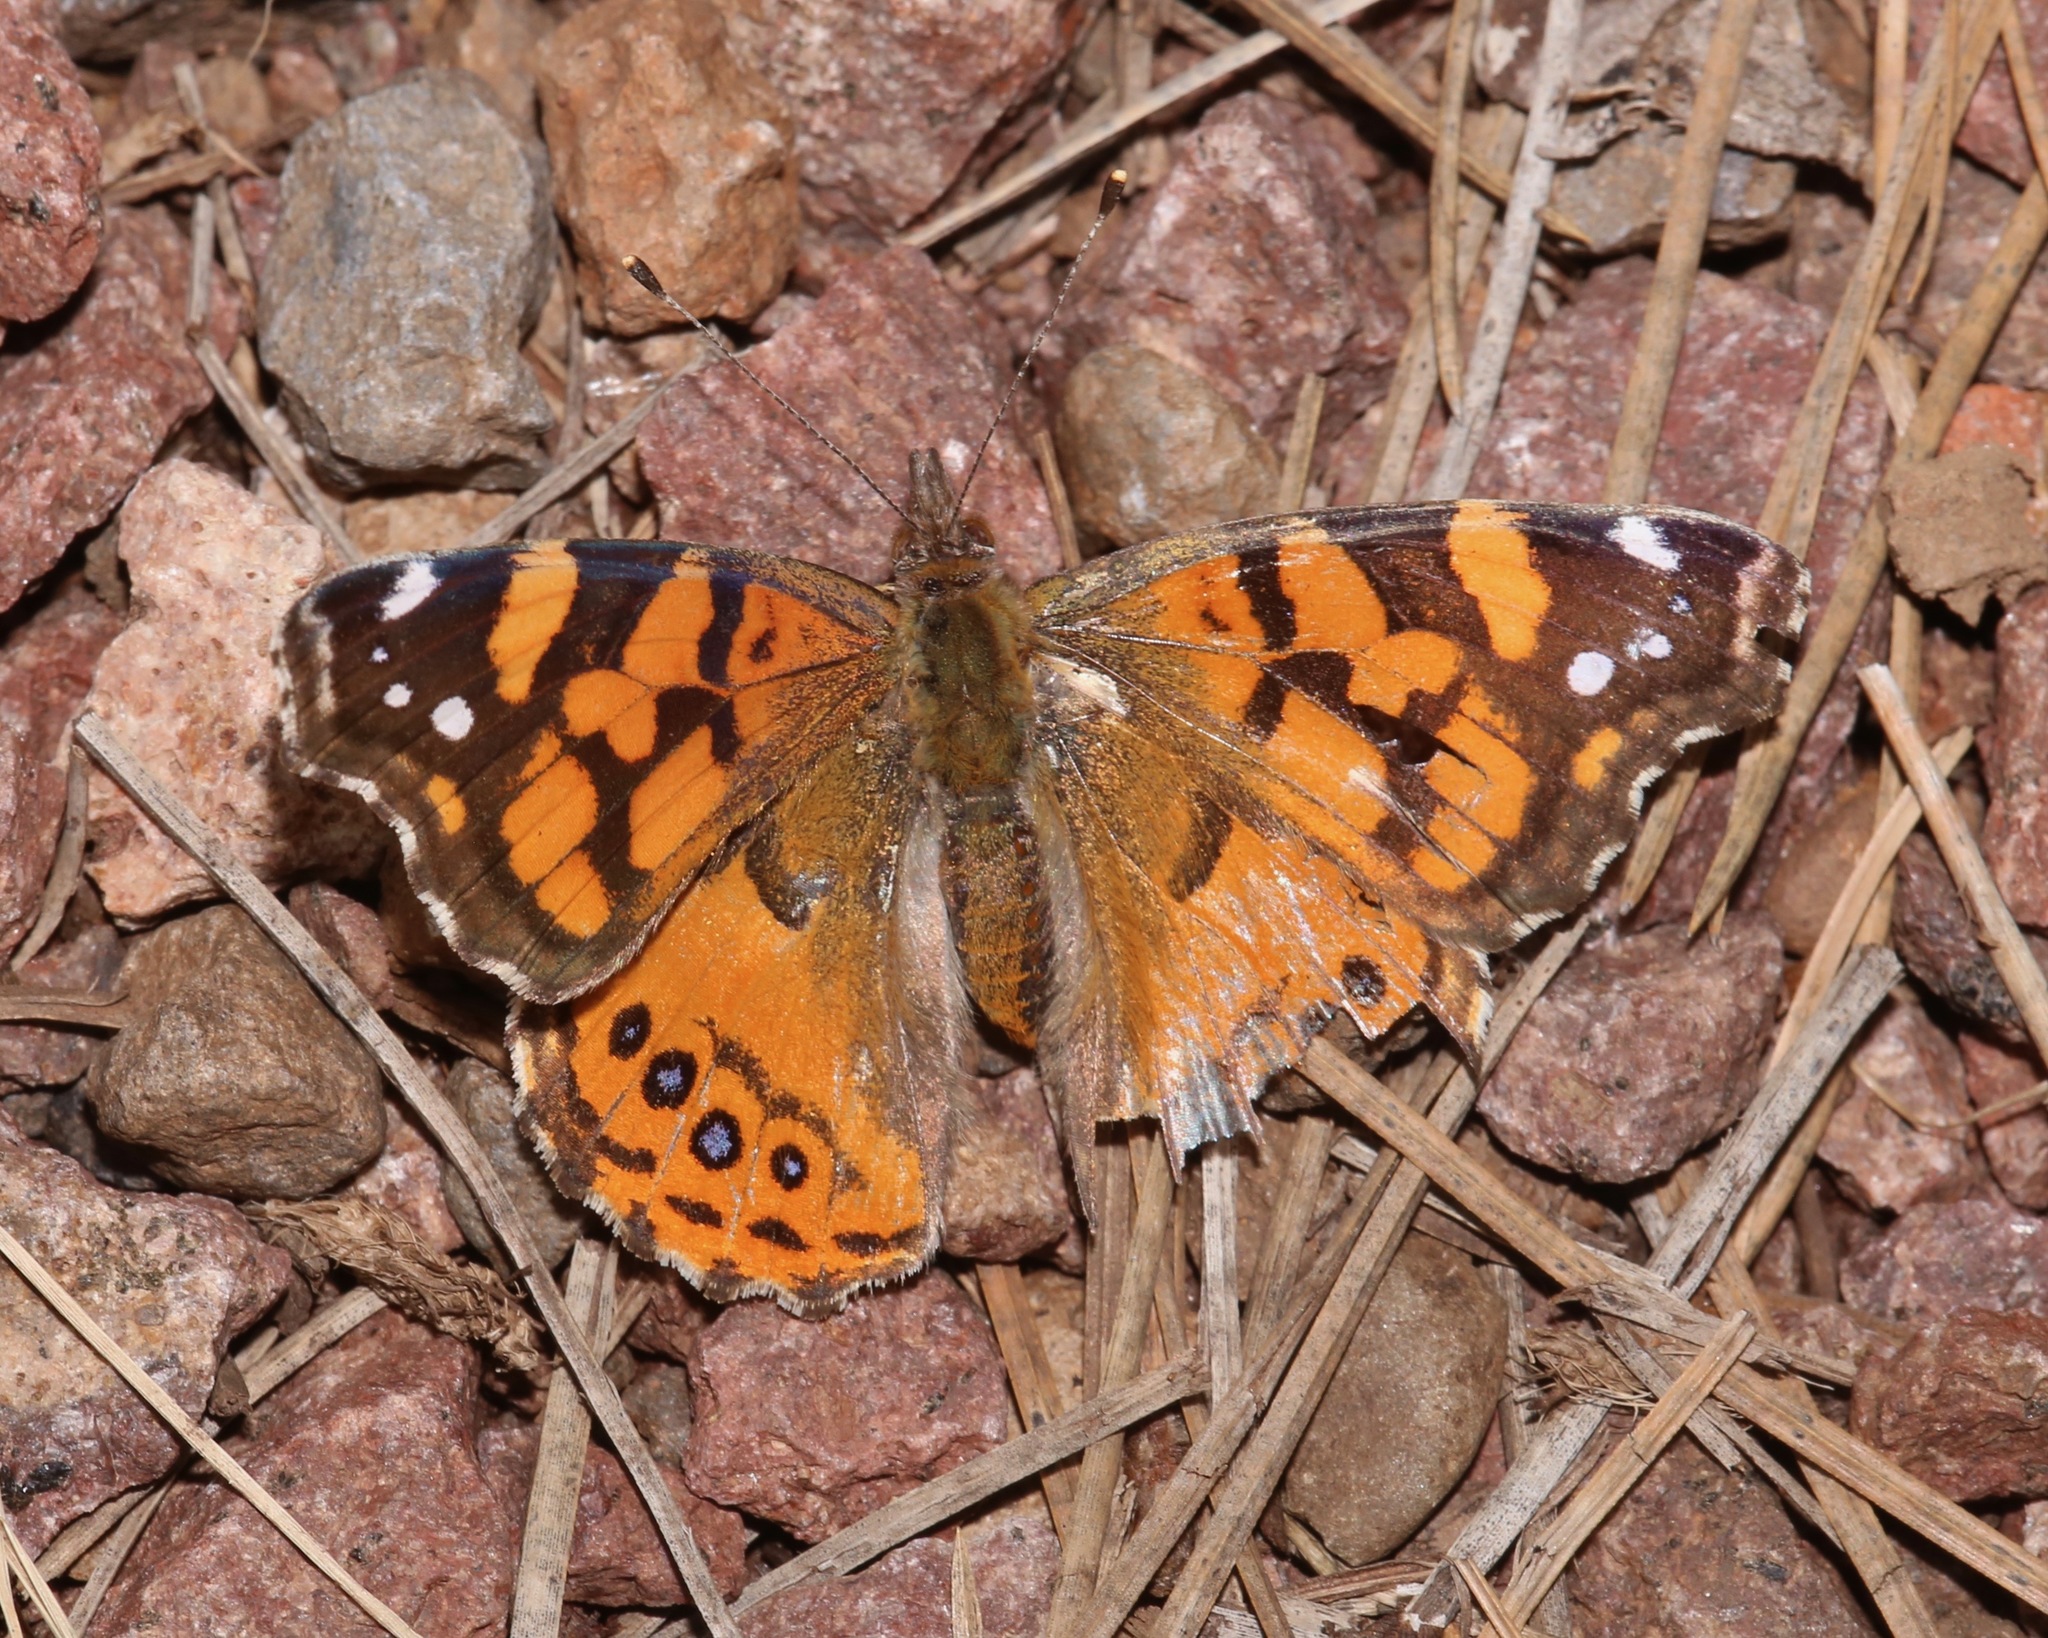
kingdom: Animalia
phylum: Arthropoda
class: Insecta
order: Lepidoptera
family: Nymphalidae
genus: Vanessa
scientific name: Vanessa annabella
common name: West coast lady
